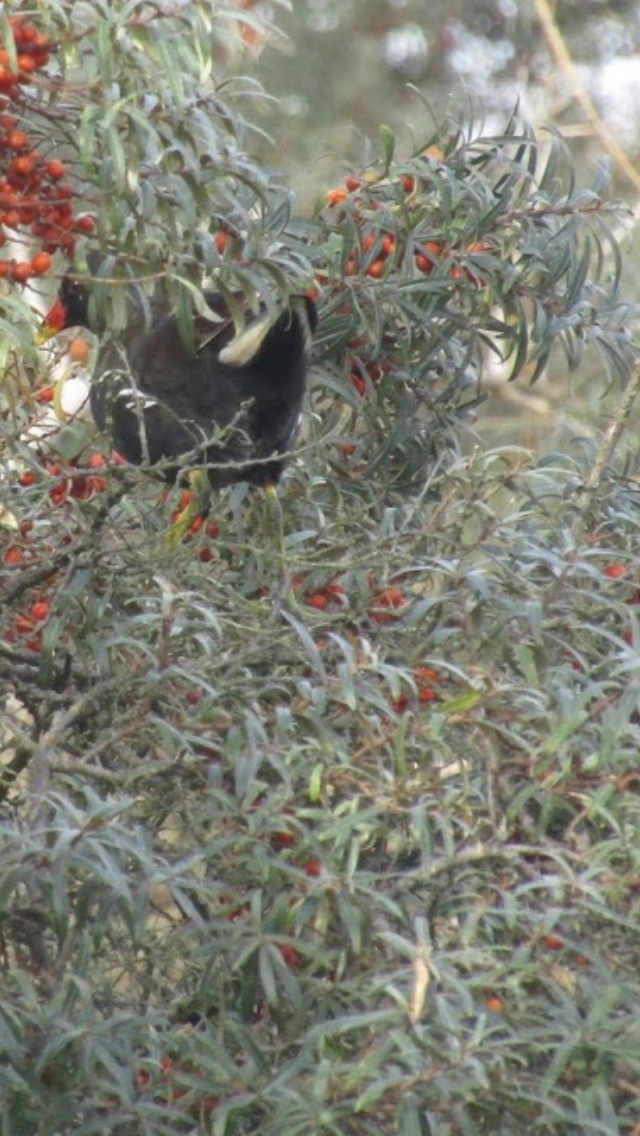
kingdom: Plantae
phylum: Tracheophyta
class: Magnoliopsida
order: Rosales
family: Elaeagnaceae
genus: Hippophae
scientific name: Hippophae rhamnoides
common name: Sea-buckthorn
